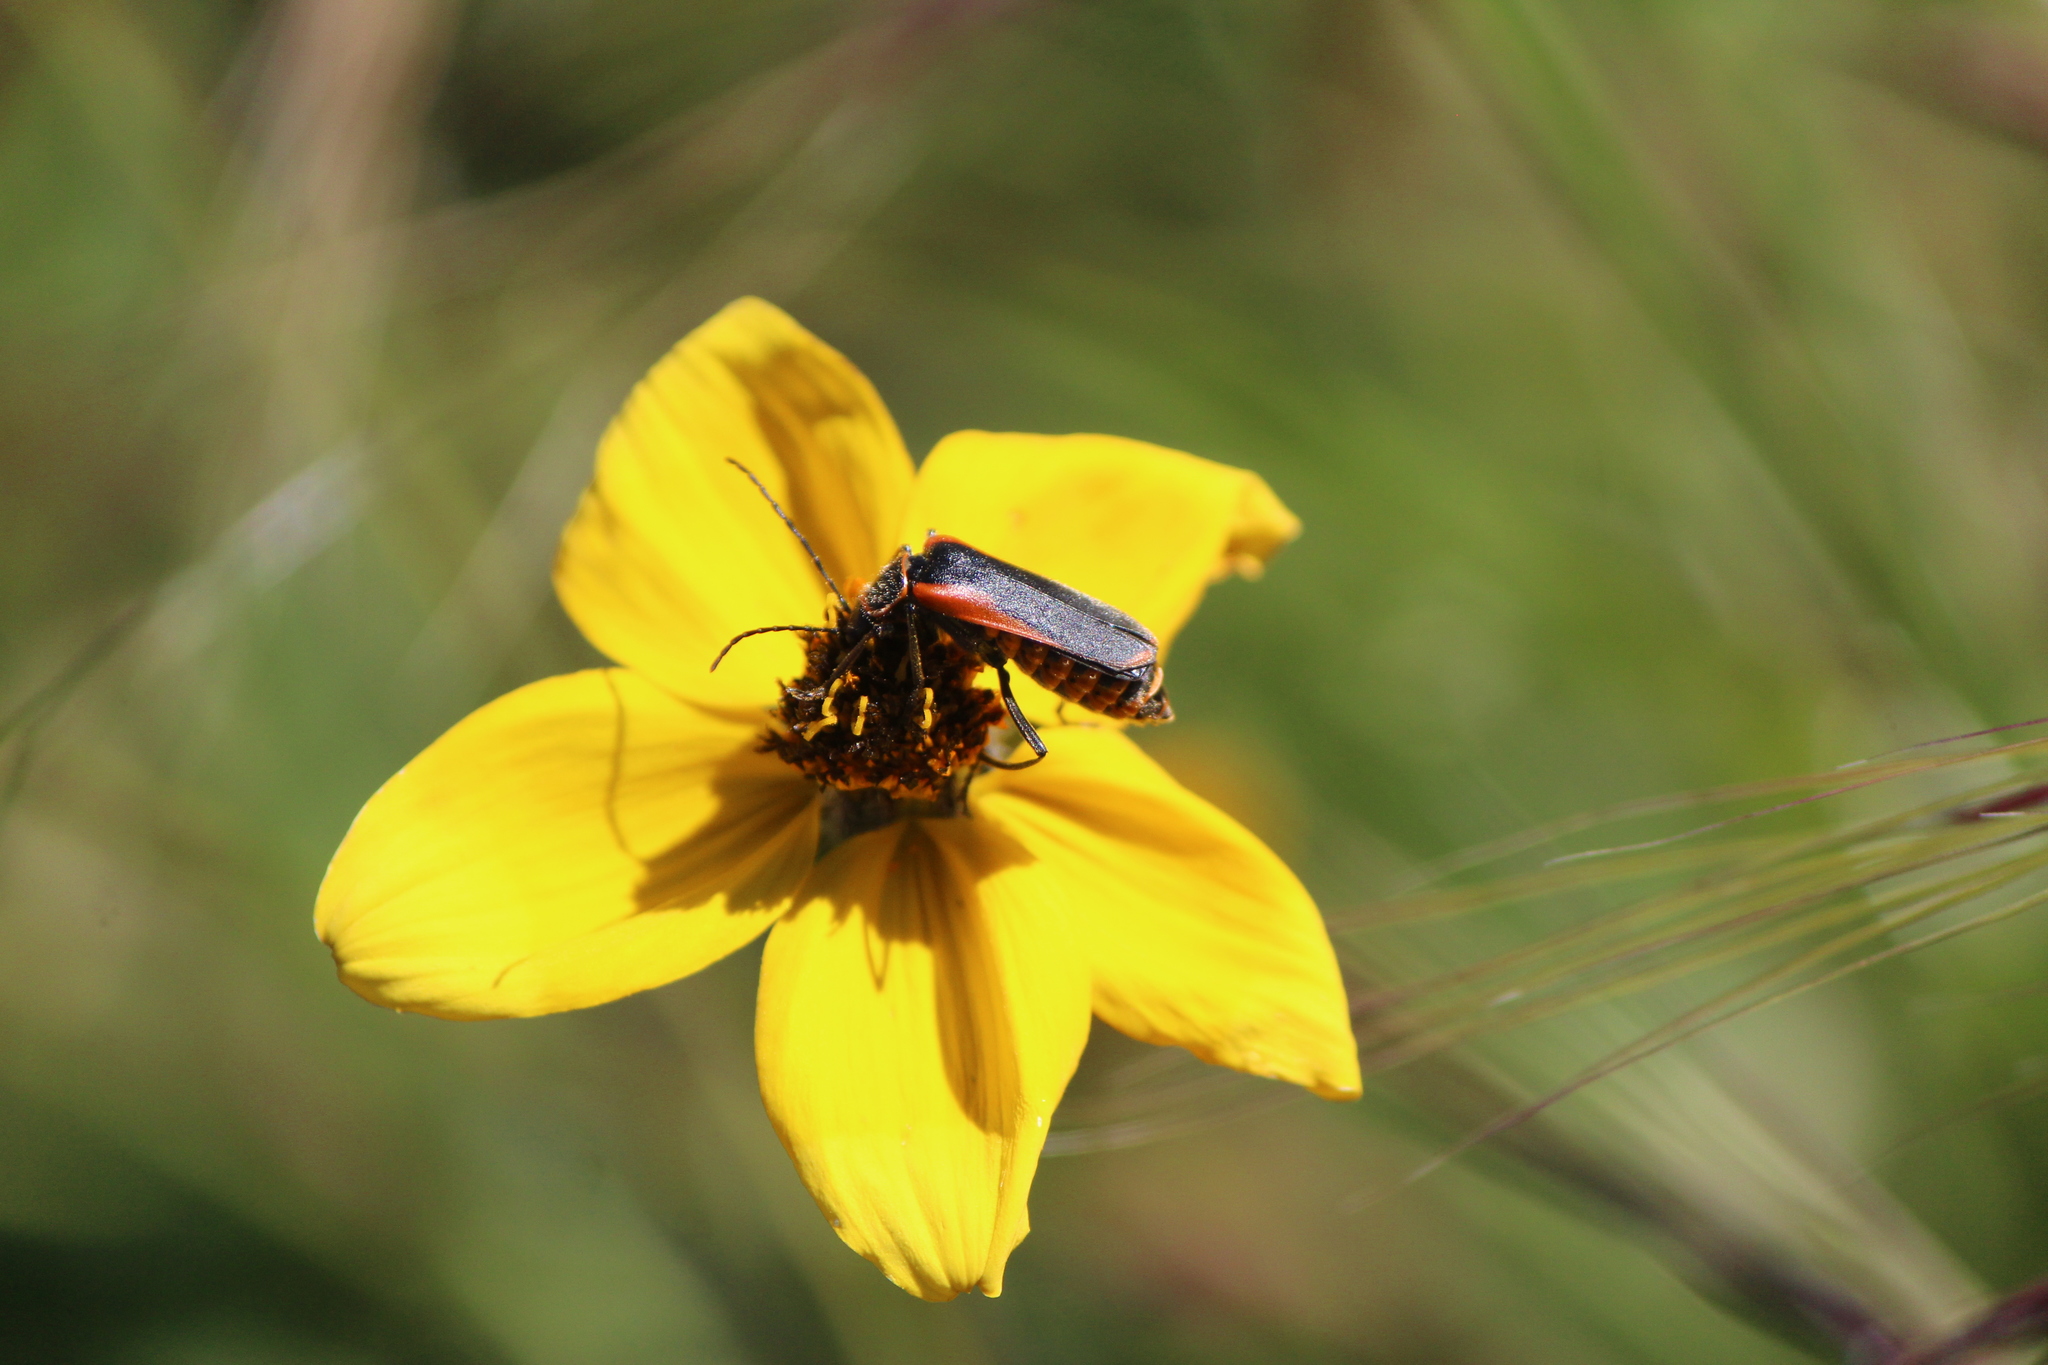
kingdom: Animalia
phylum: Arthropoda
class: Insecta
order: Coleoptera
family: Cantharidae
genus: Chauliognathus
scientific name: Chauliognathus limbicollis
